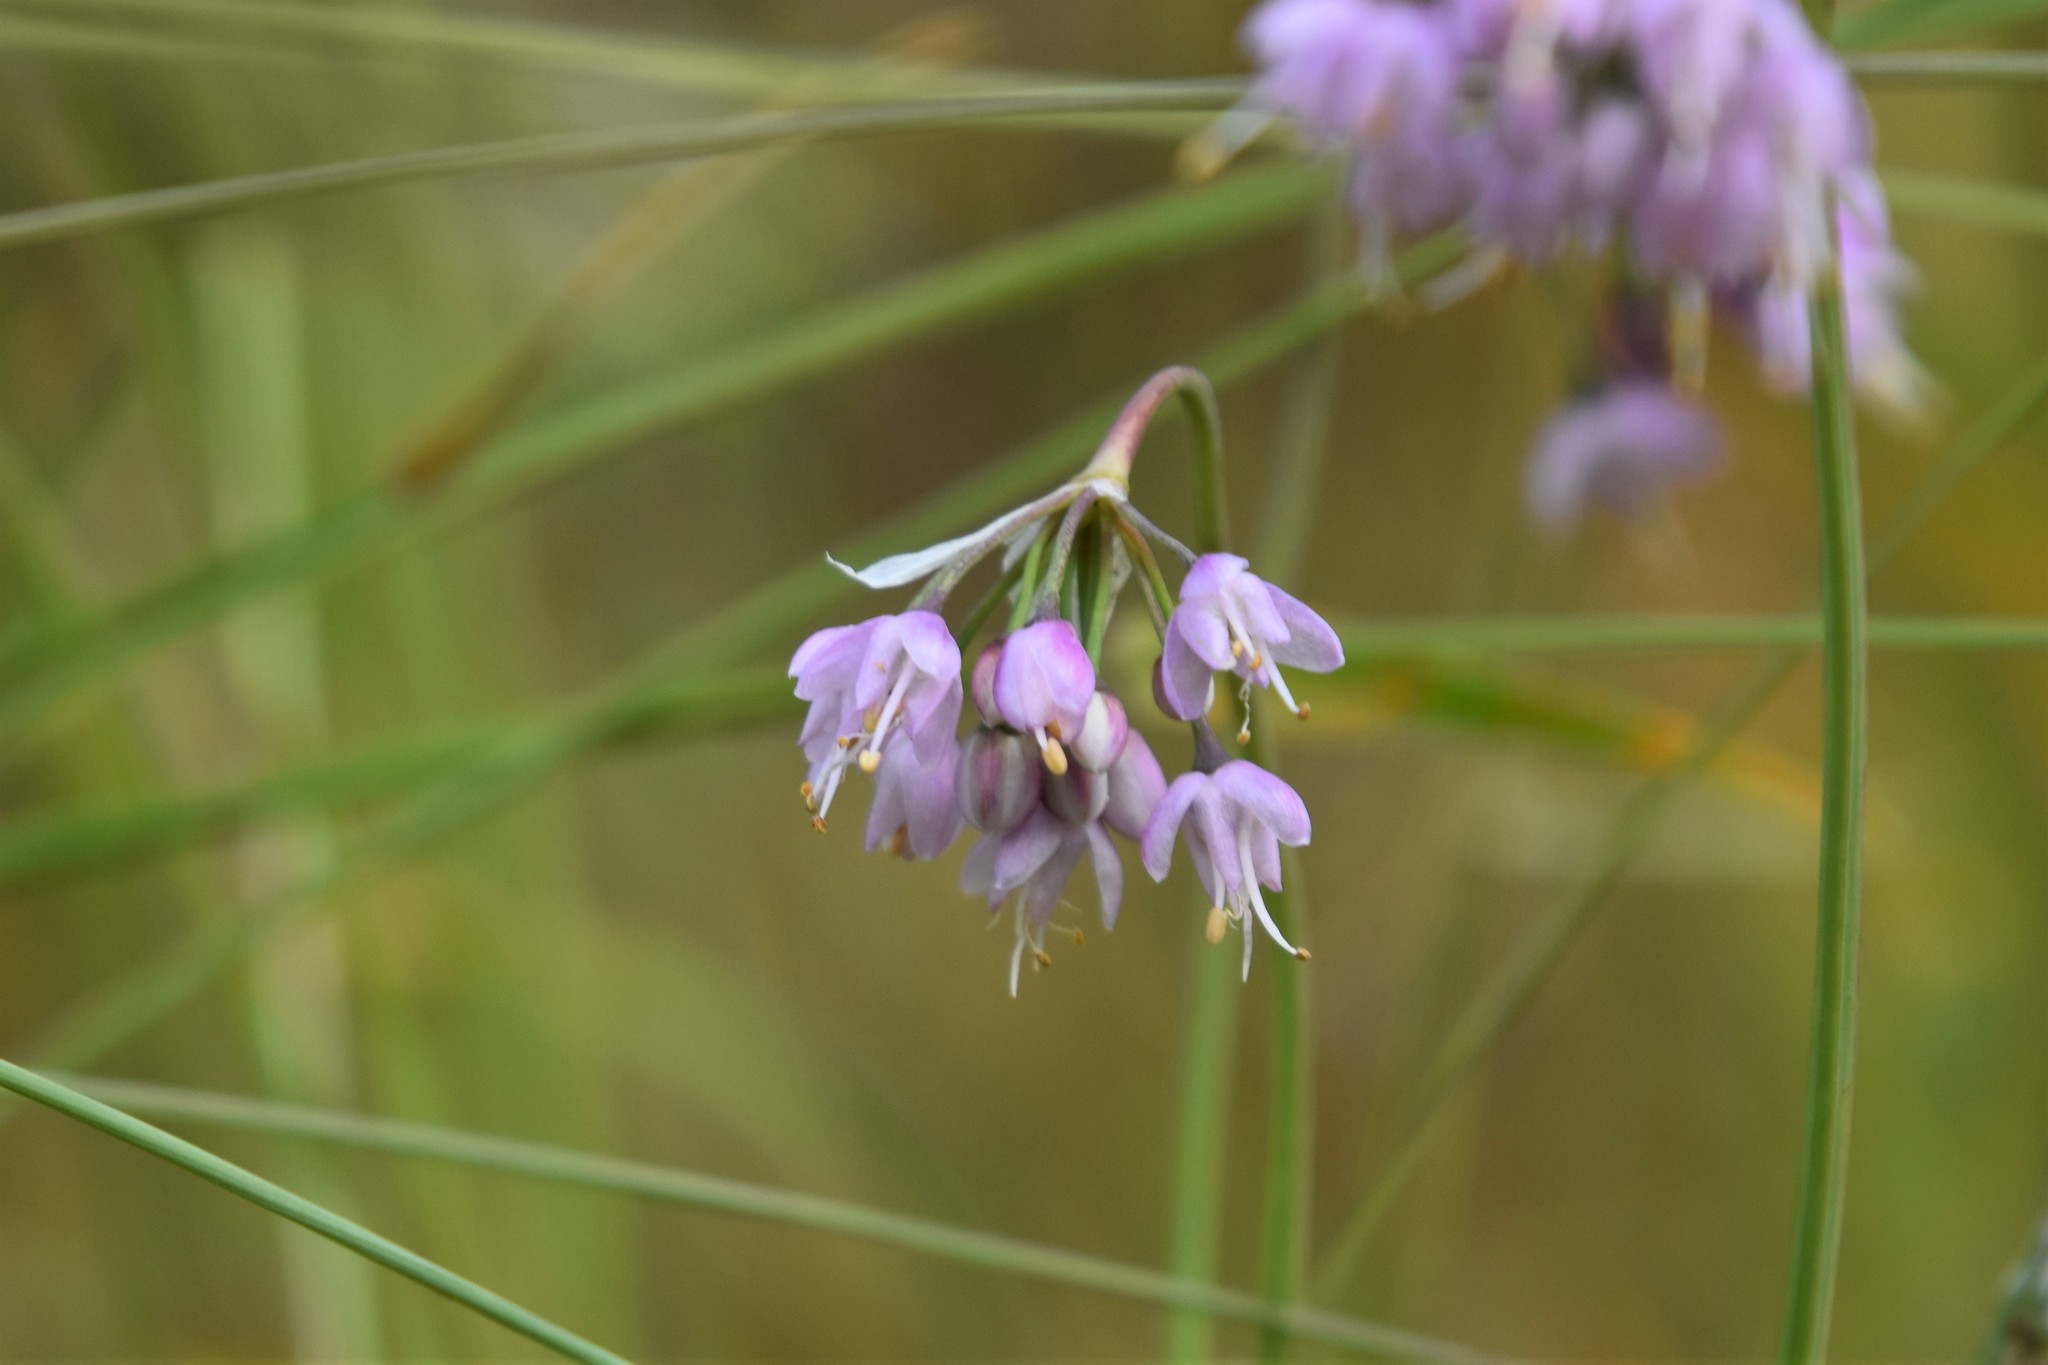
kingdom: Plantae
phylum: Tracheophyta
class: Liliopsida
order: Asparagales
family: Amaryllidaceae
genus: Allium
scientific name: Allium cernuum
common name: Nodding onion
